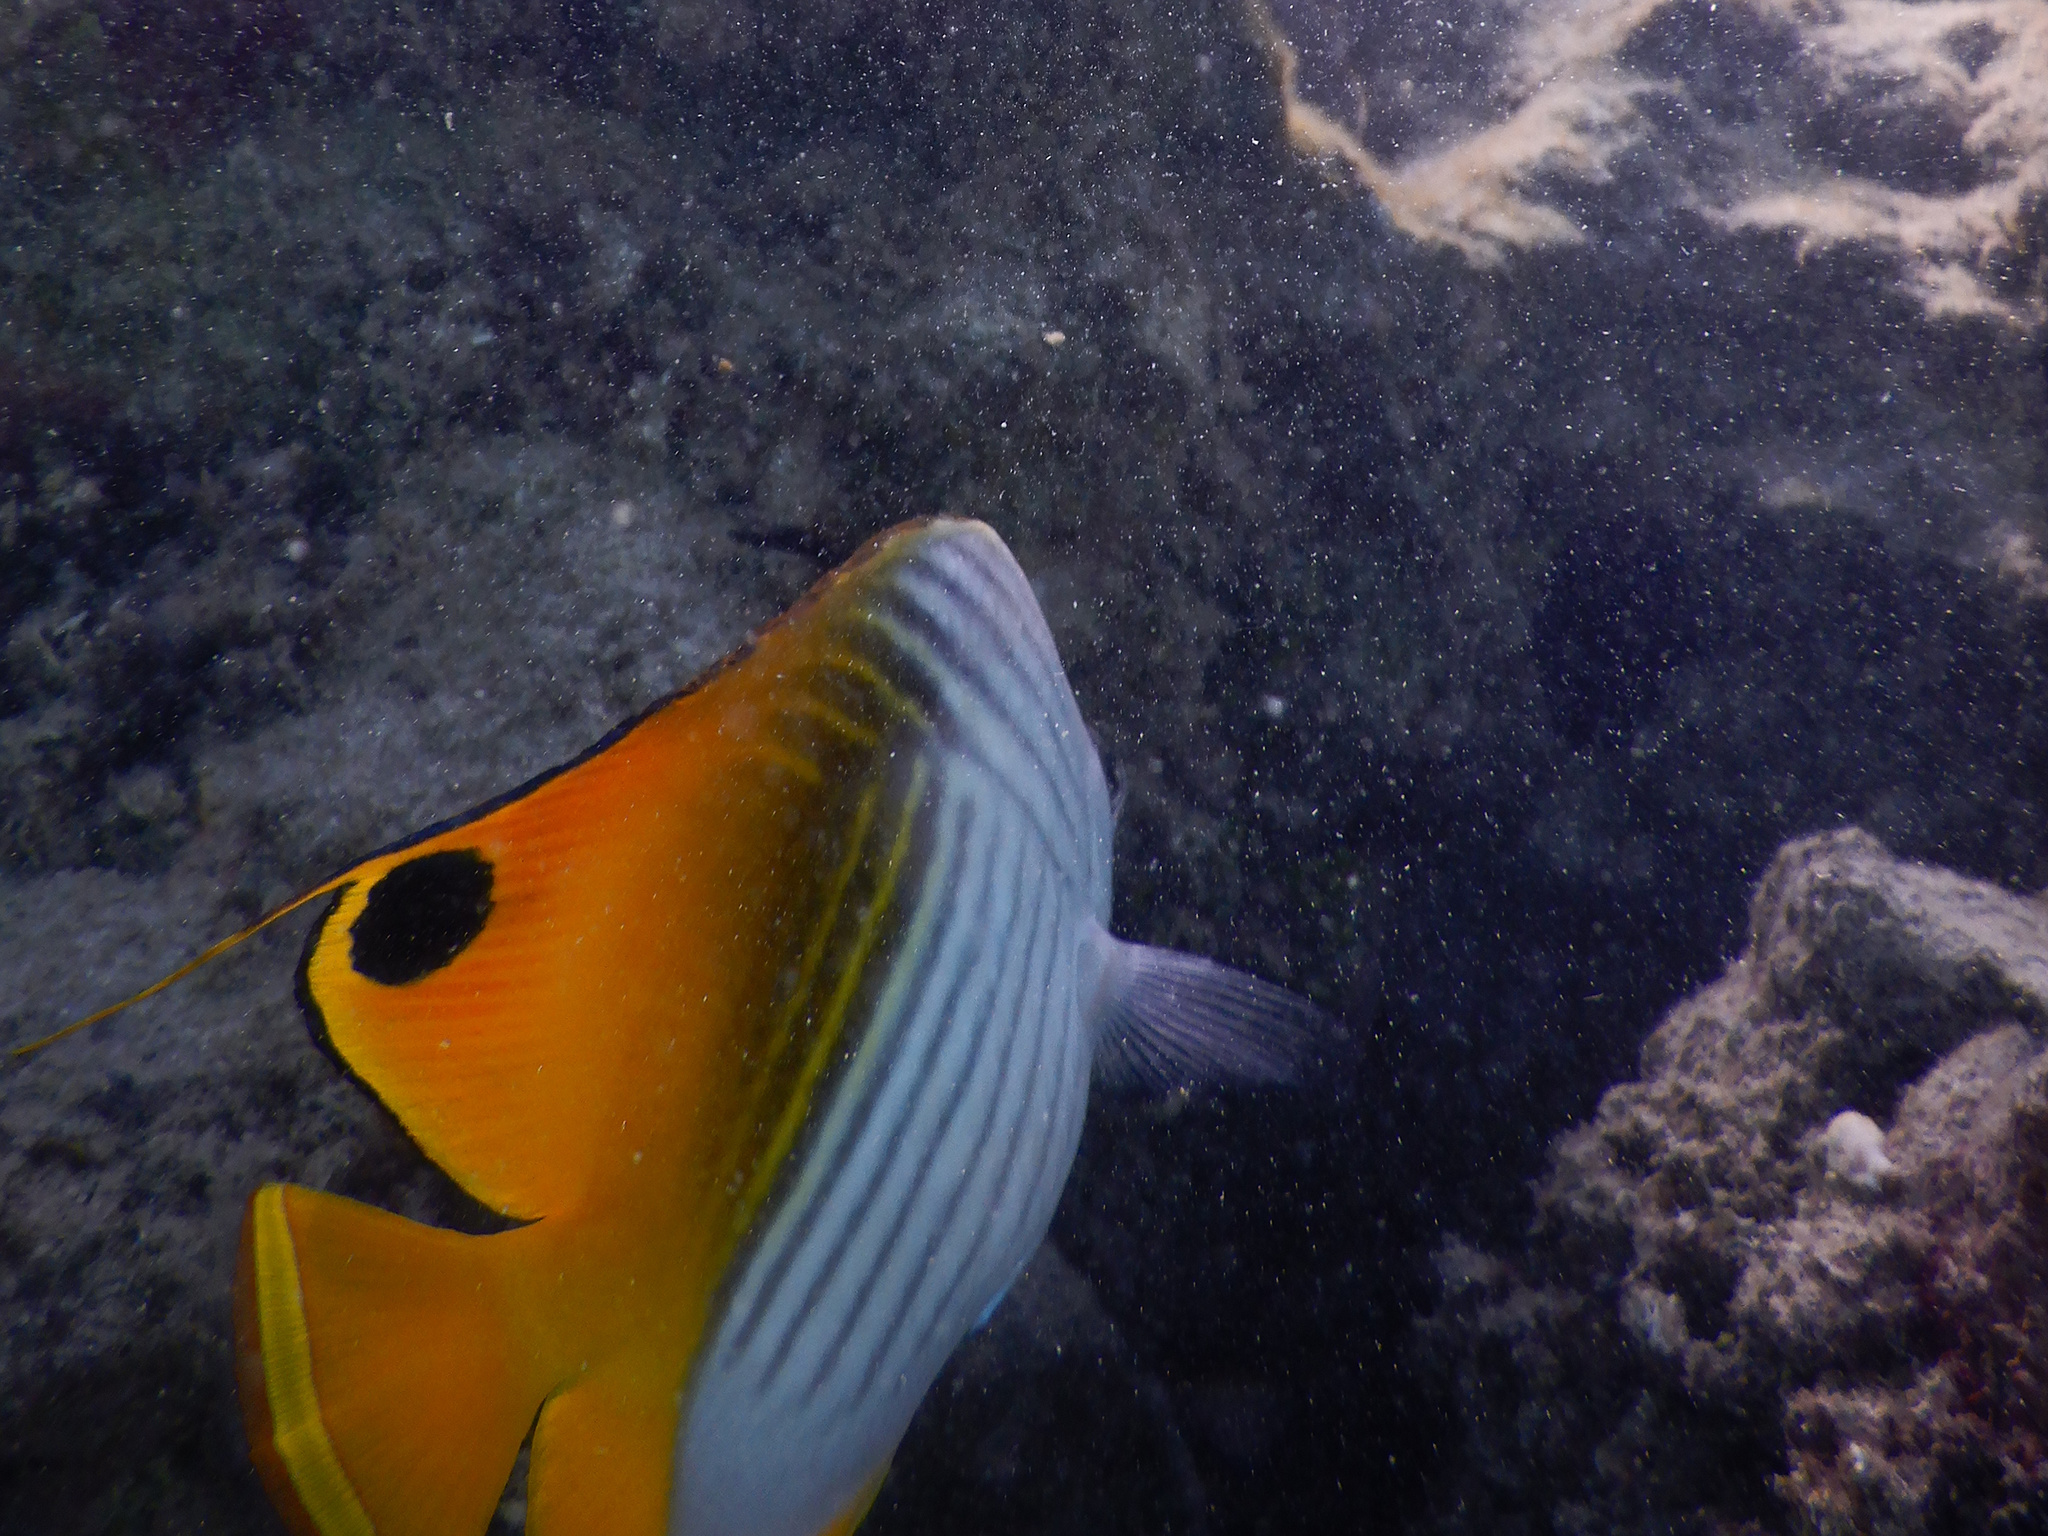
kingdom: Animalia
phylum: Chordata
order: Perciformes
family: Chaetodontidae
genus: Chaetodon
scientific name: Chaetodon auriga
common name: Threadfin butterflyfish
